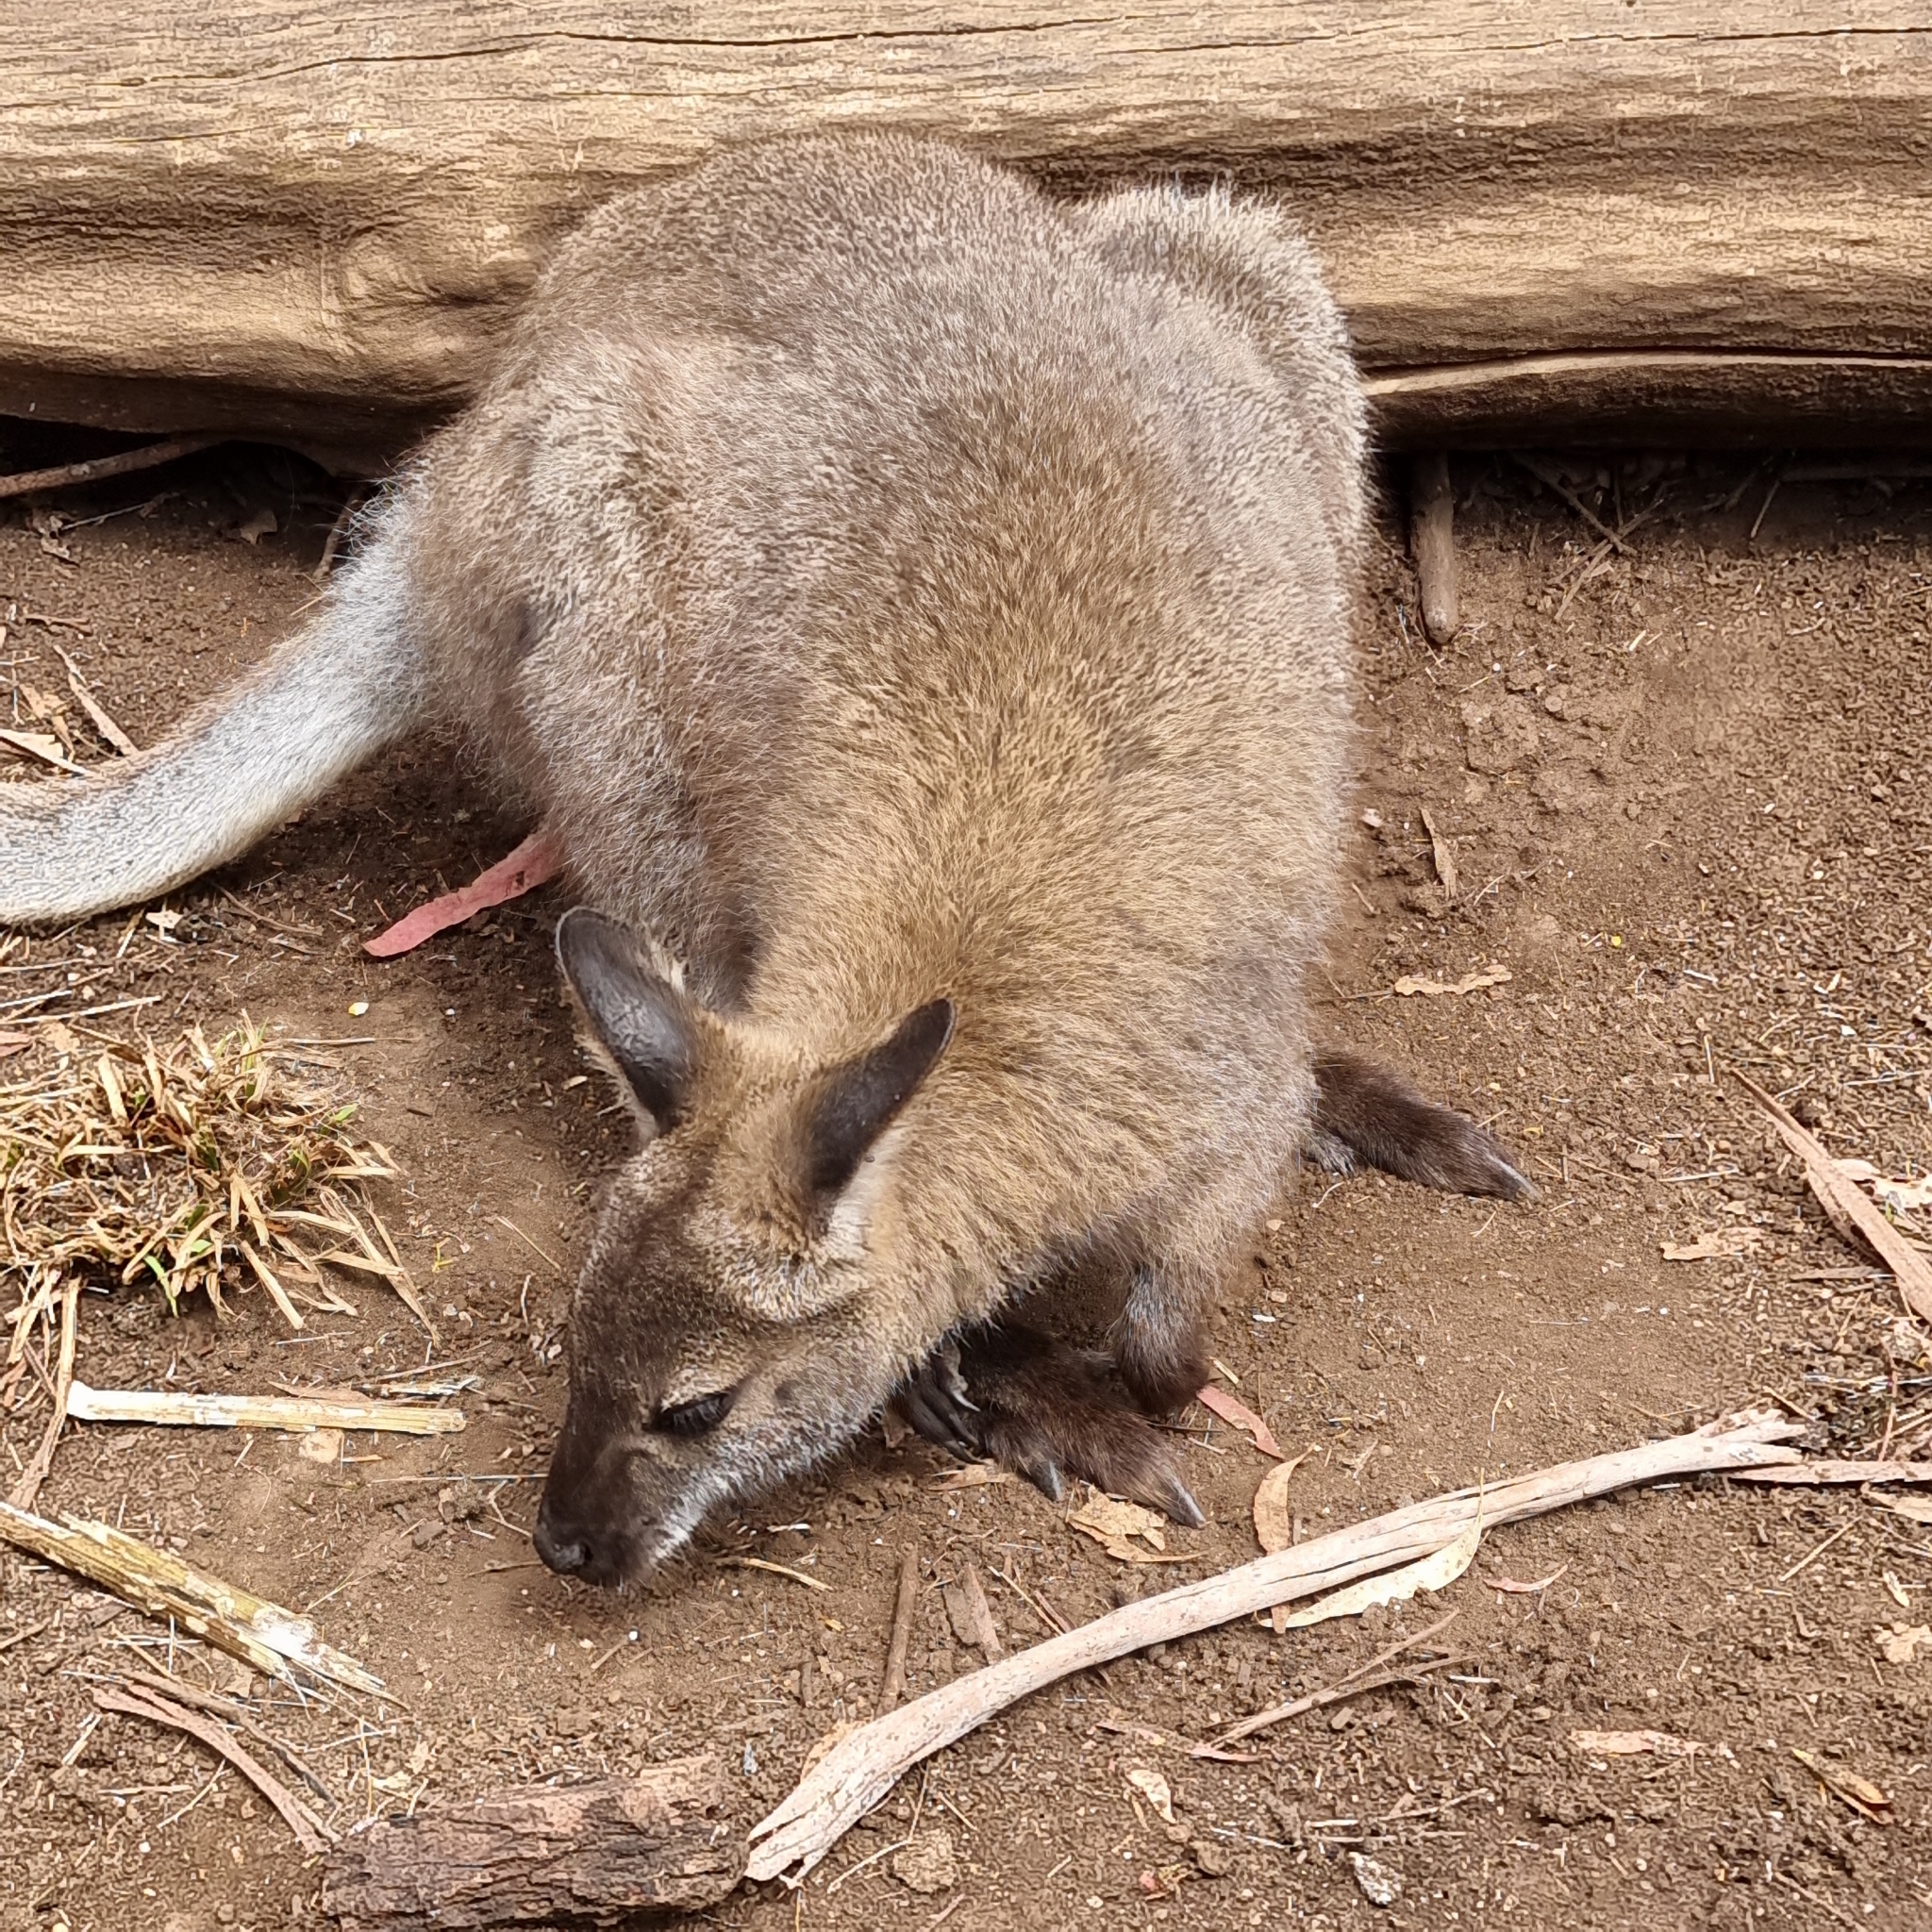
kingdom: Animalia
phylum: Chordata
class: Mammalia
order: Diprotodontia
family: Macropodidae
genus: Notamacropus
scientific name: Notamacropus rufogriseus
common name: Red-necked wallaby
